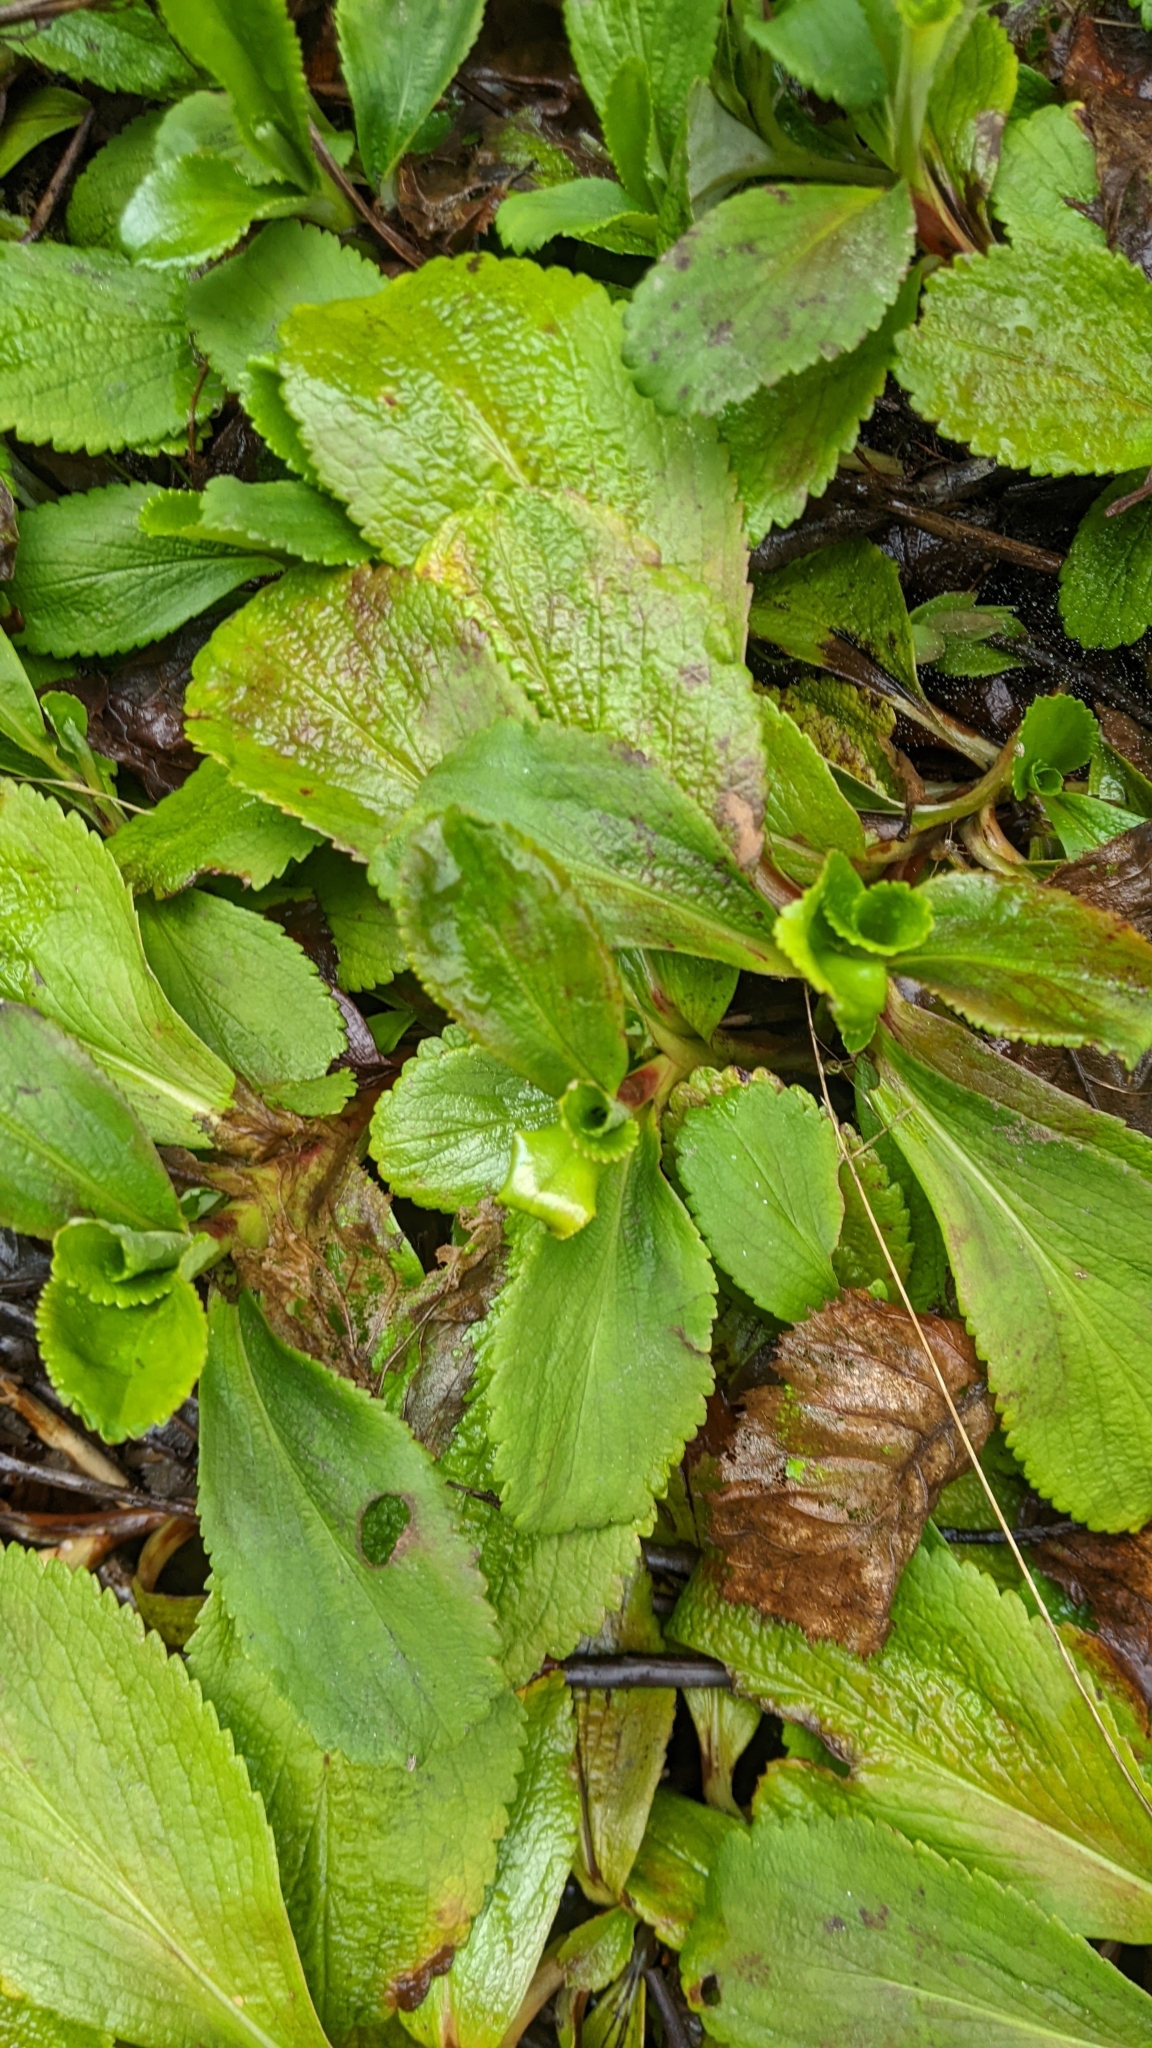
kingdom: Plantae
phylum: Tracheophyta
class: Magnoliopsida
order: Saxifragales
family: Saxifragaceae
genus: Leptarrhena
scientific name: Leptarrhena pyrolifolia
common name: Leatherleaf-saxifrage
